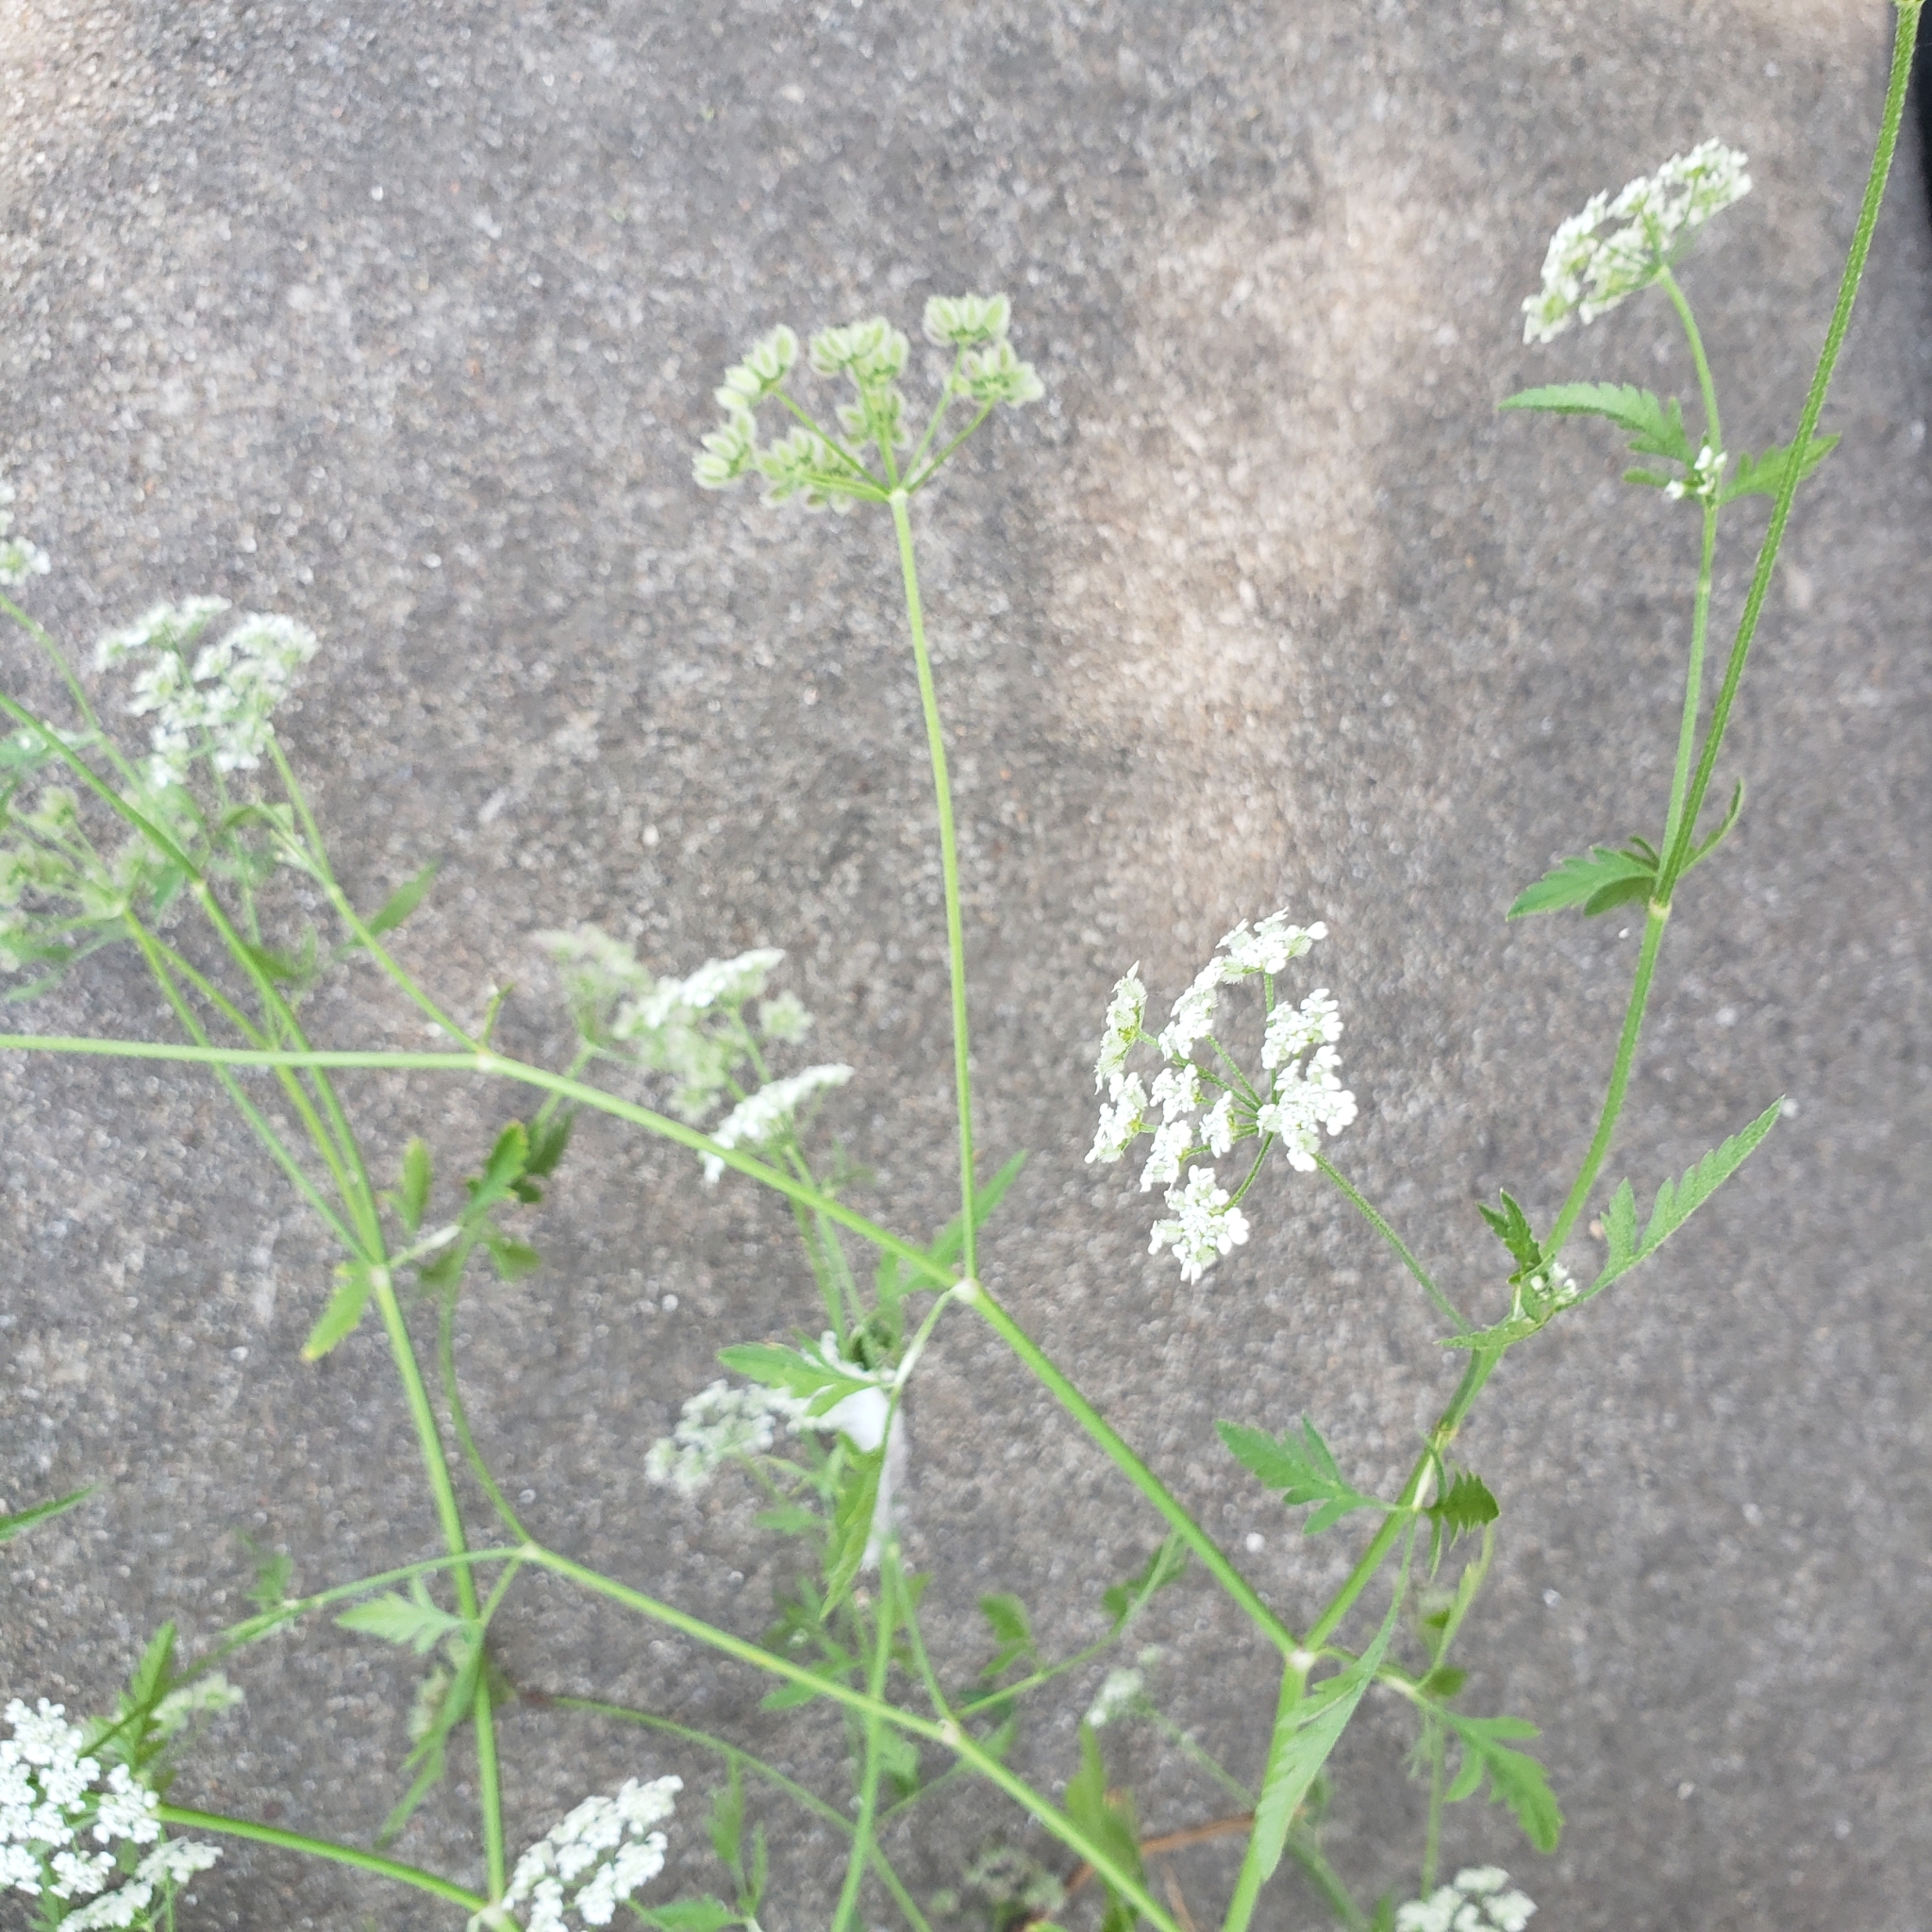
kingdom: Plantae
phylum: Tracheophyta
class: Magnoliopsida
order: Apiales
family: Apiaceae
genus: Torilis
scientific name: Torilis arvensis
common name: Spreading hedge-parsley
